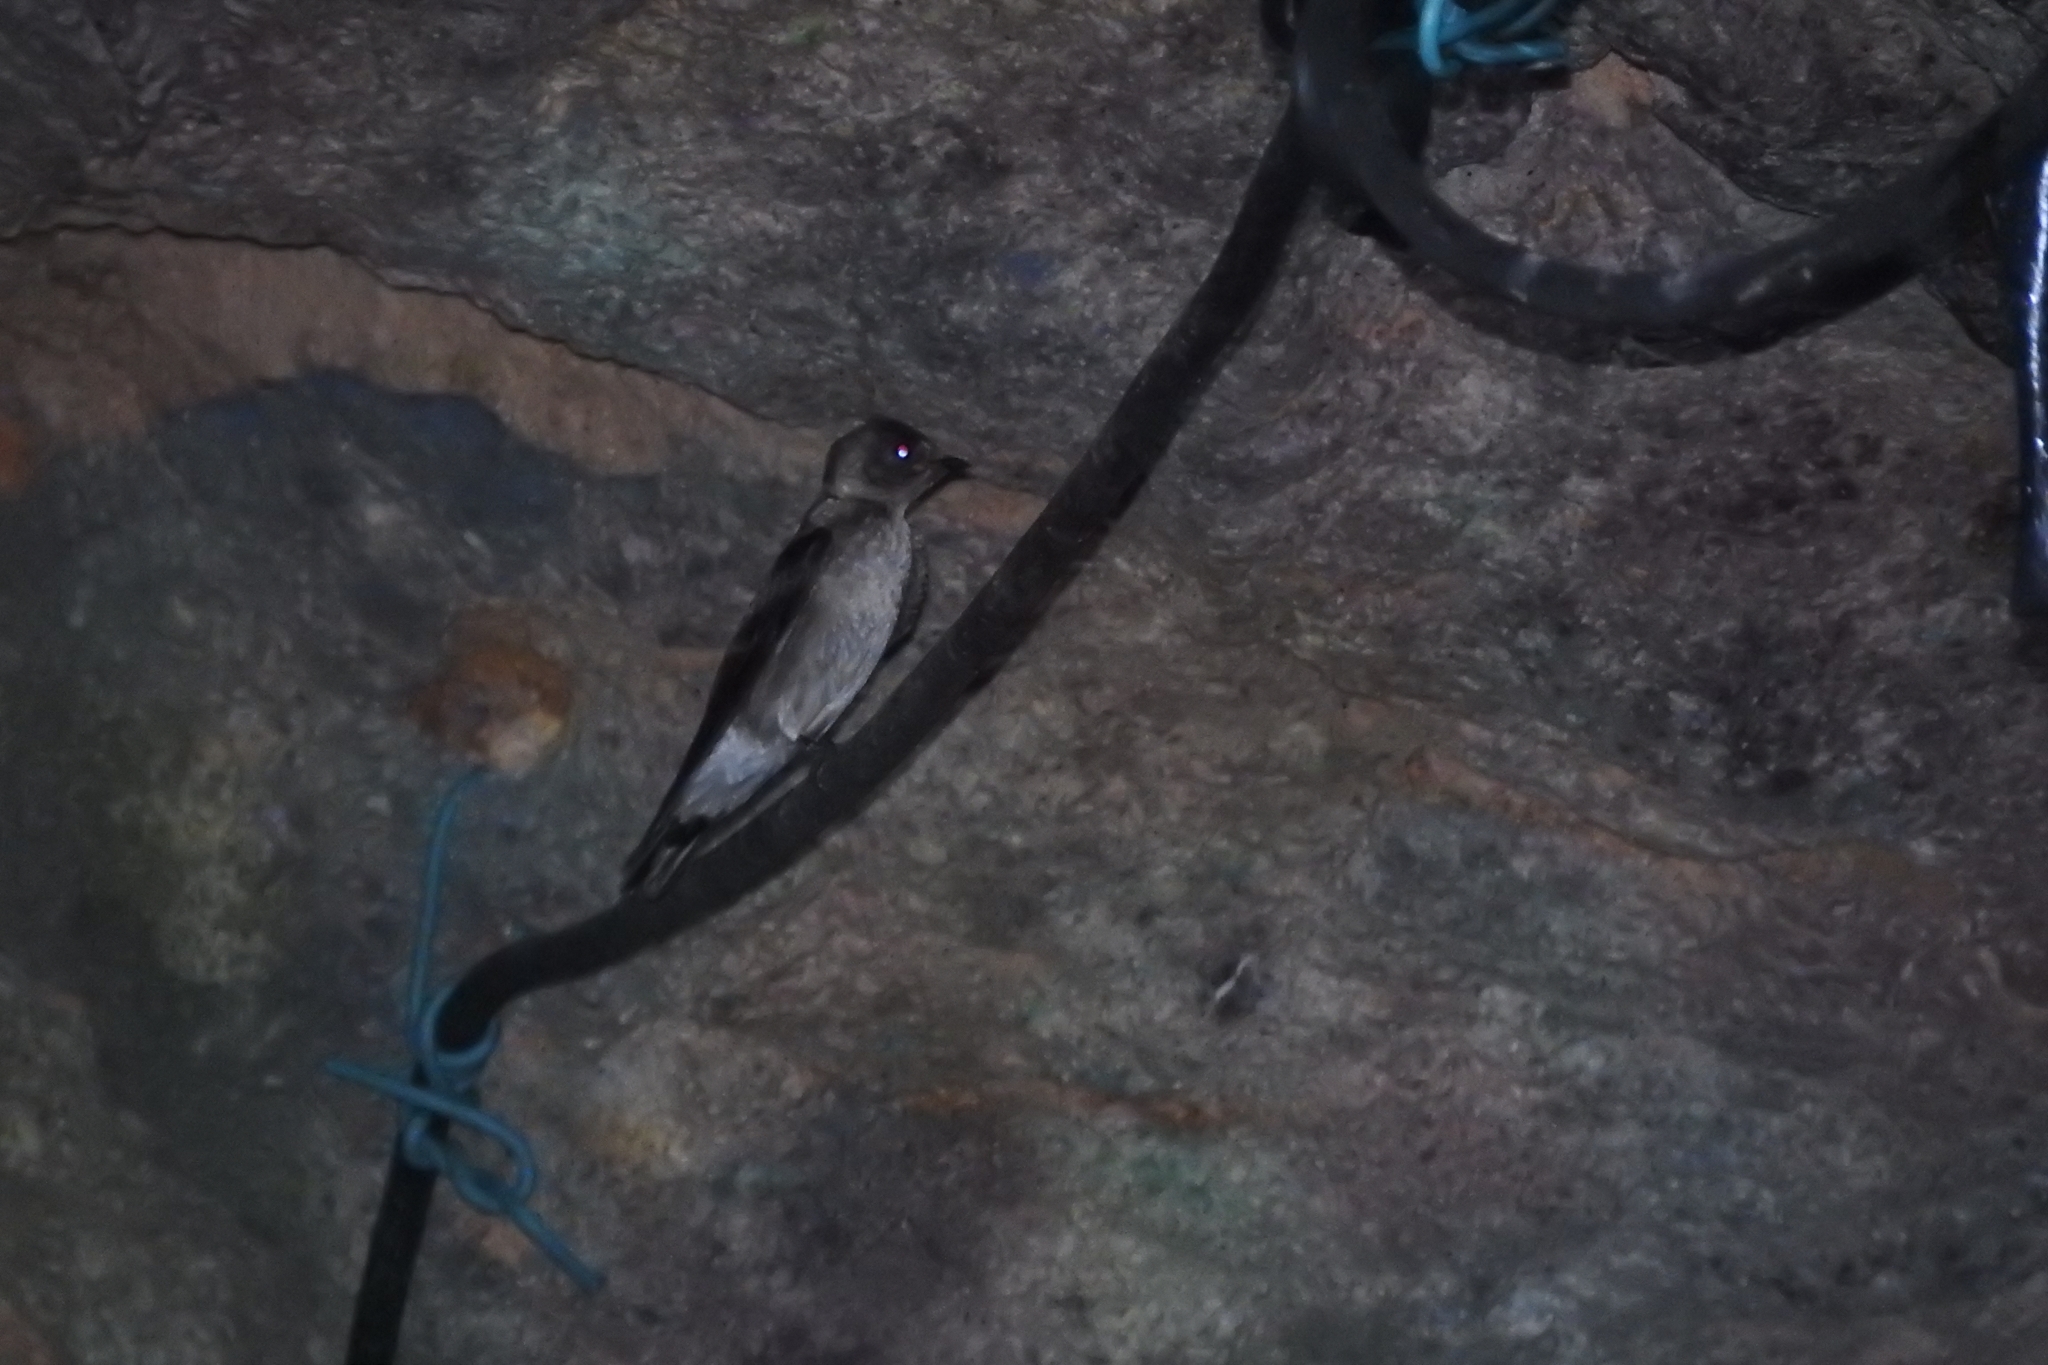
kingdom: Animalia
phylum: Chordata
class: Aves
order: Passeriformes
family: Hirundinidae
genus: Progne
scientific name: Progne chalybea
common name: Grey-breasted martin
